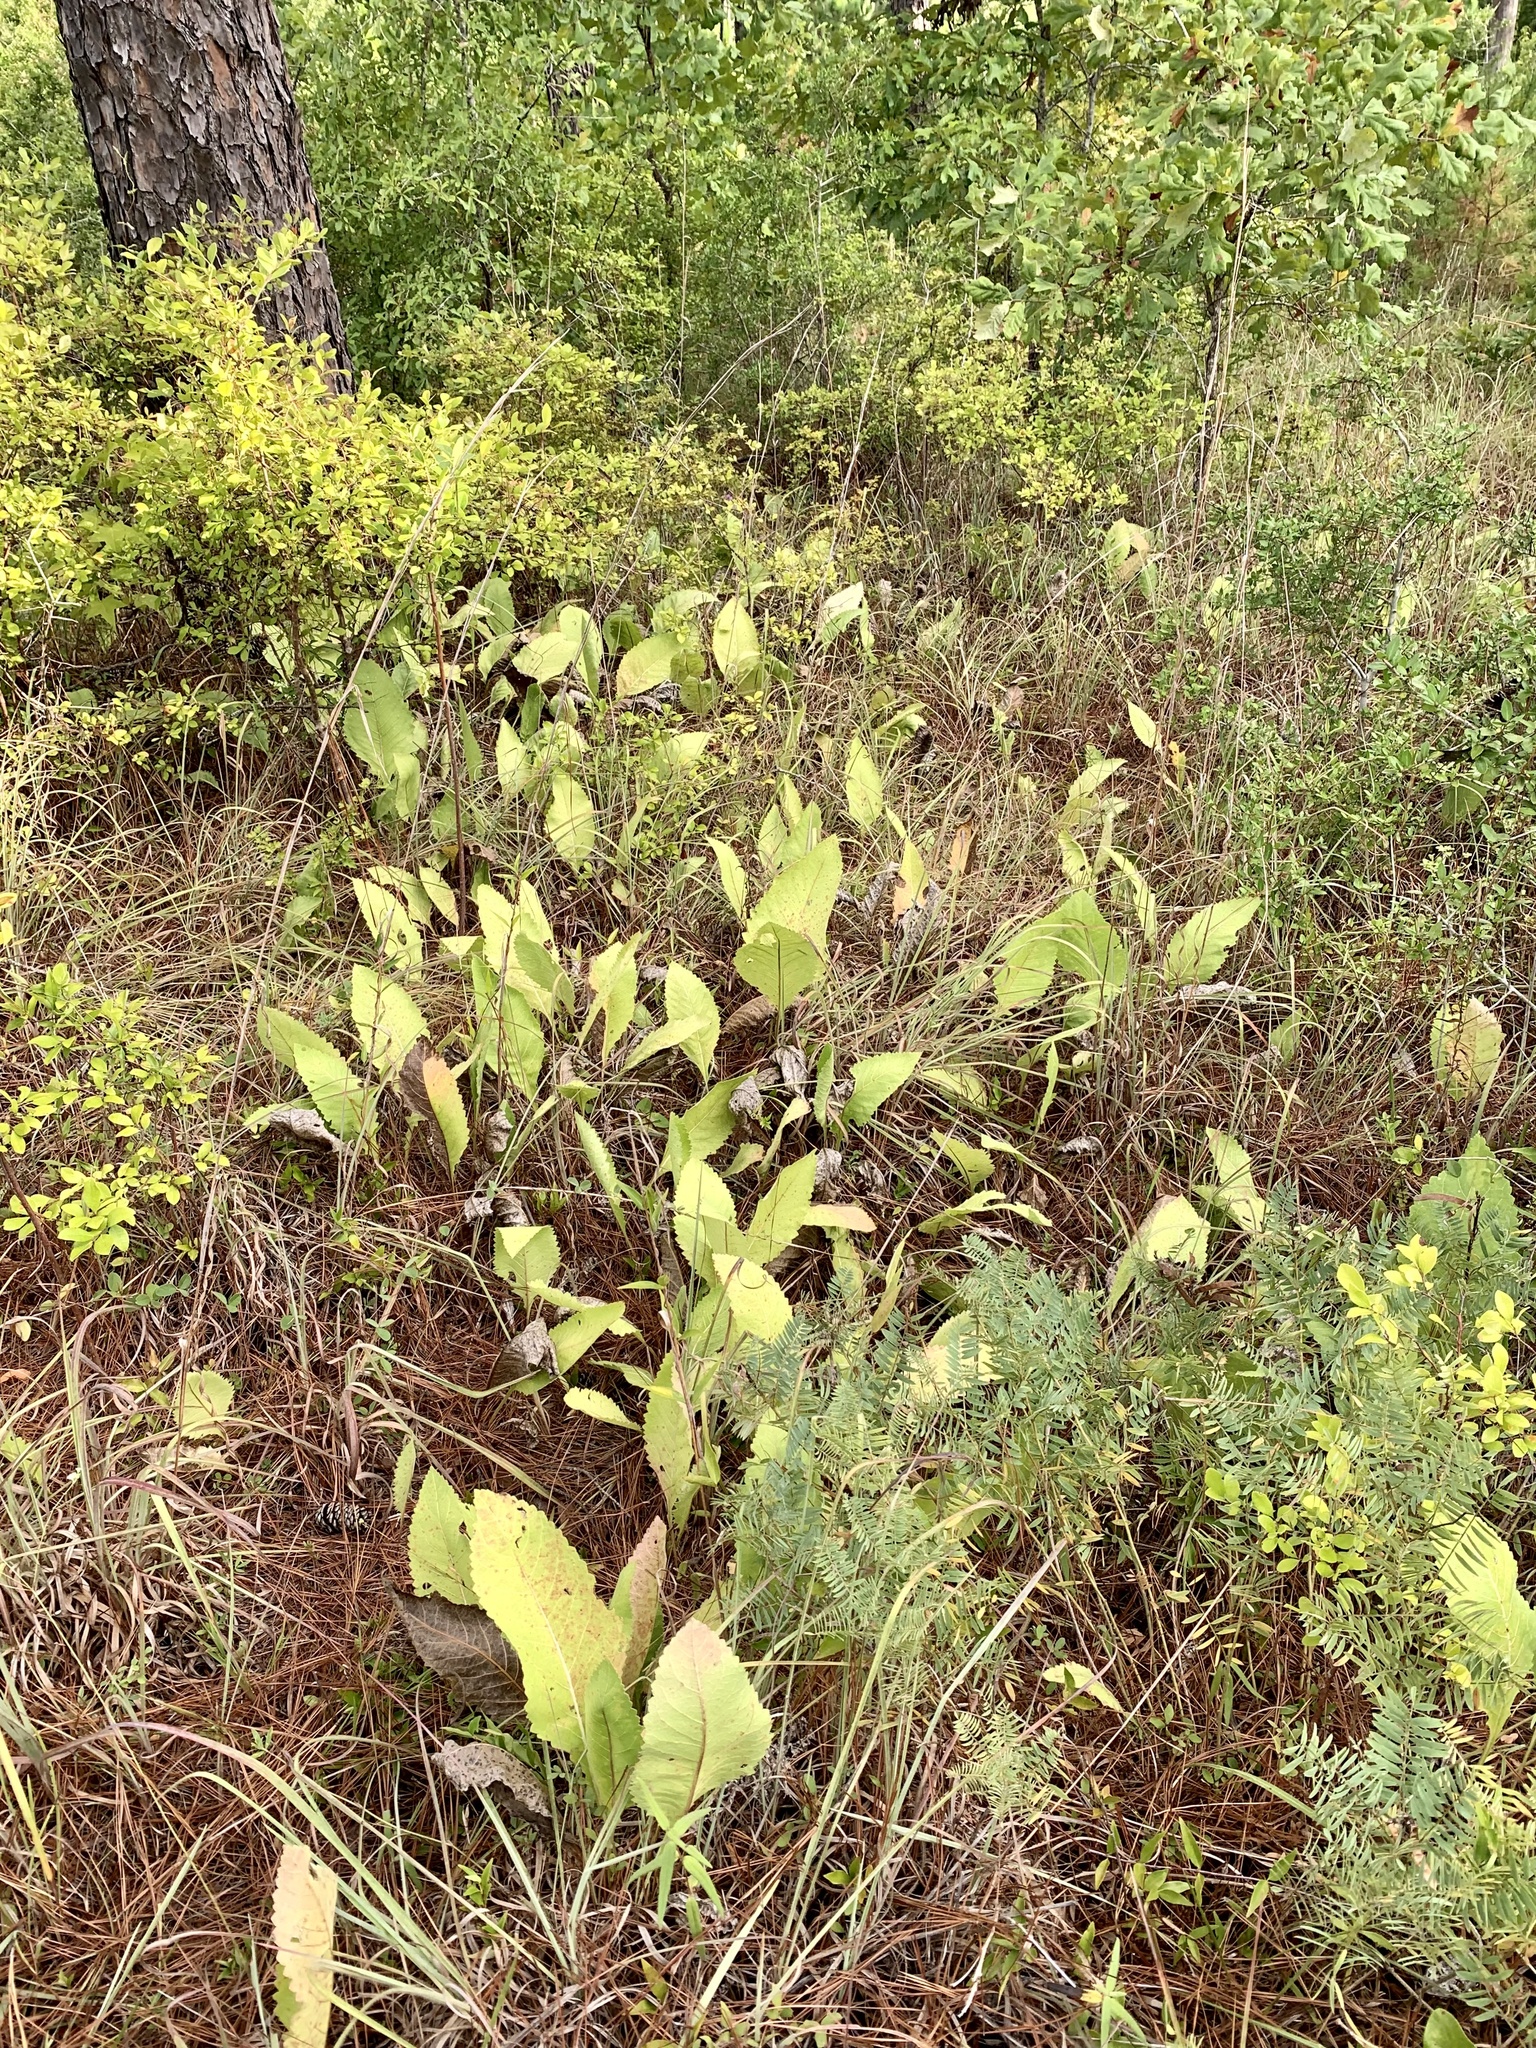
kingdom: Plantae
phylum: Tracheophyta
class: Magnoliopsida
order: Asterales
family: Asteraceae
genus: Parthenium
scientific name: Parthenium hispidum
